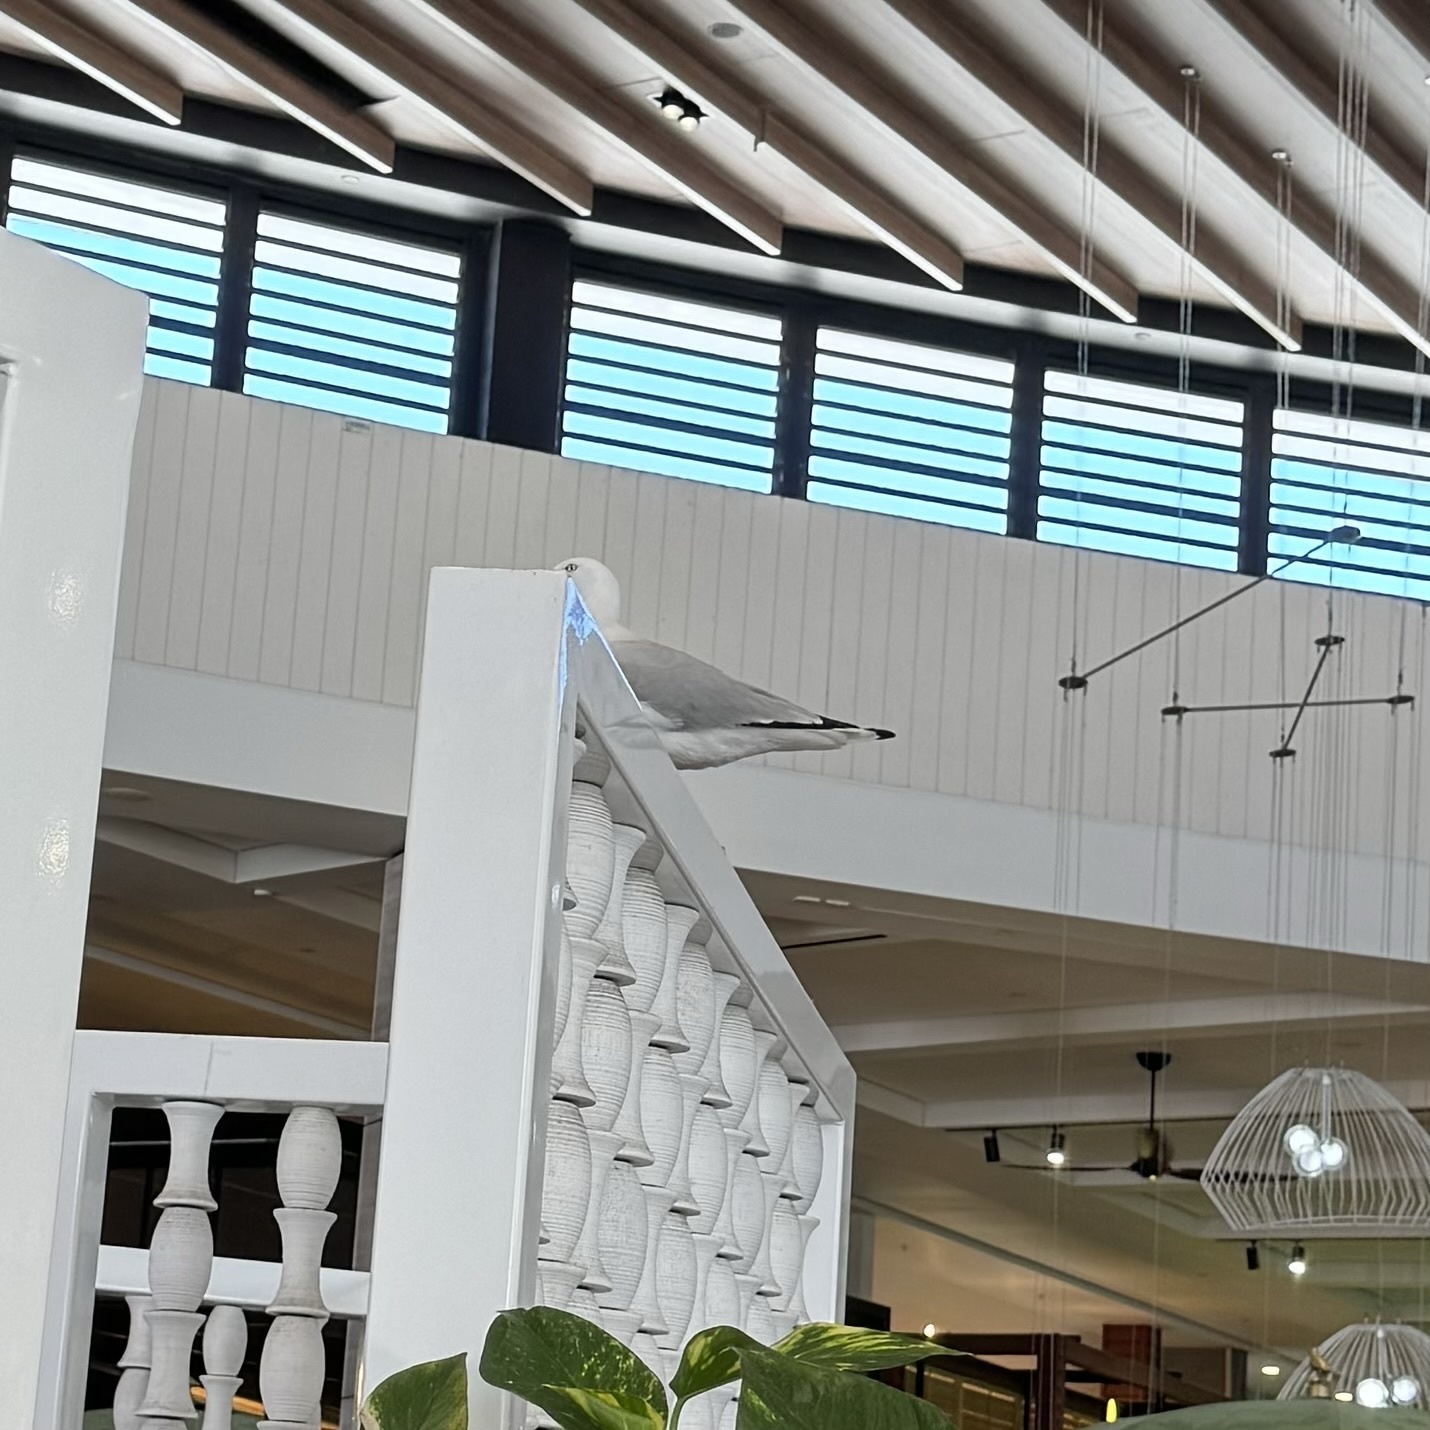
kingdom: Animalia
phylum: Chordata
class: Aves
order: Charadriiformes
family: Laridae
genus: Chroicocephalus
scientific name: Chroicocephalus novaehollandiae
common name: Silver gull
